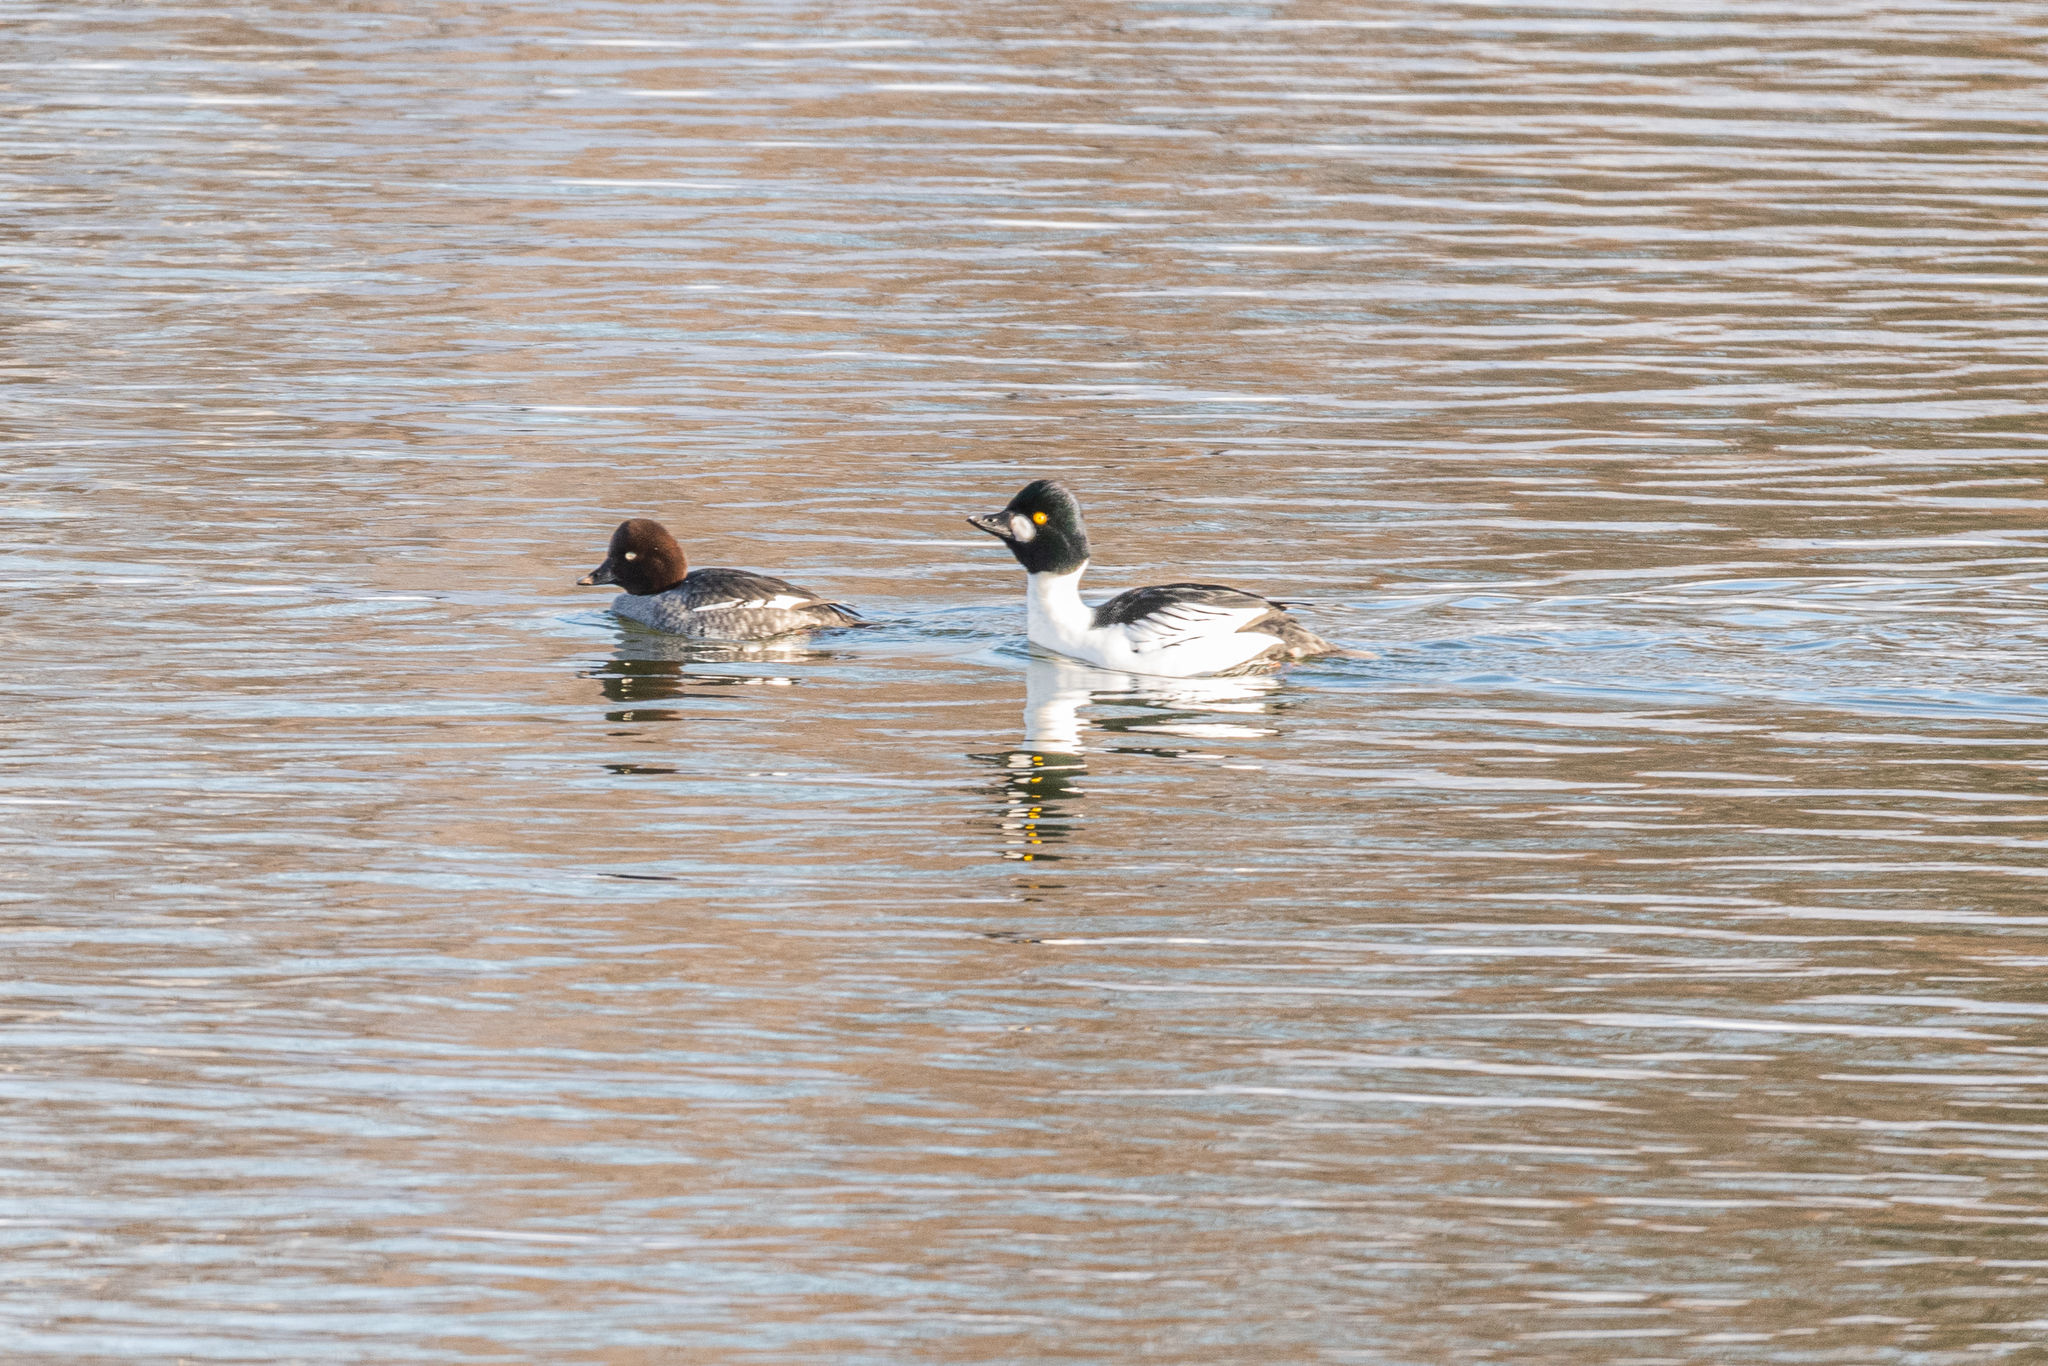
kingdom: Animalia
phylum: Chordata
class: Aves
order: Anseriformes
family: Anatidae
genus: Bucephala
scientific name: Bucephala clangula
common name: Common goldeneye
